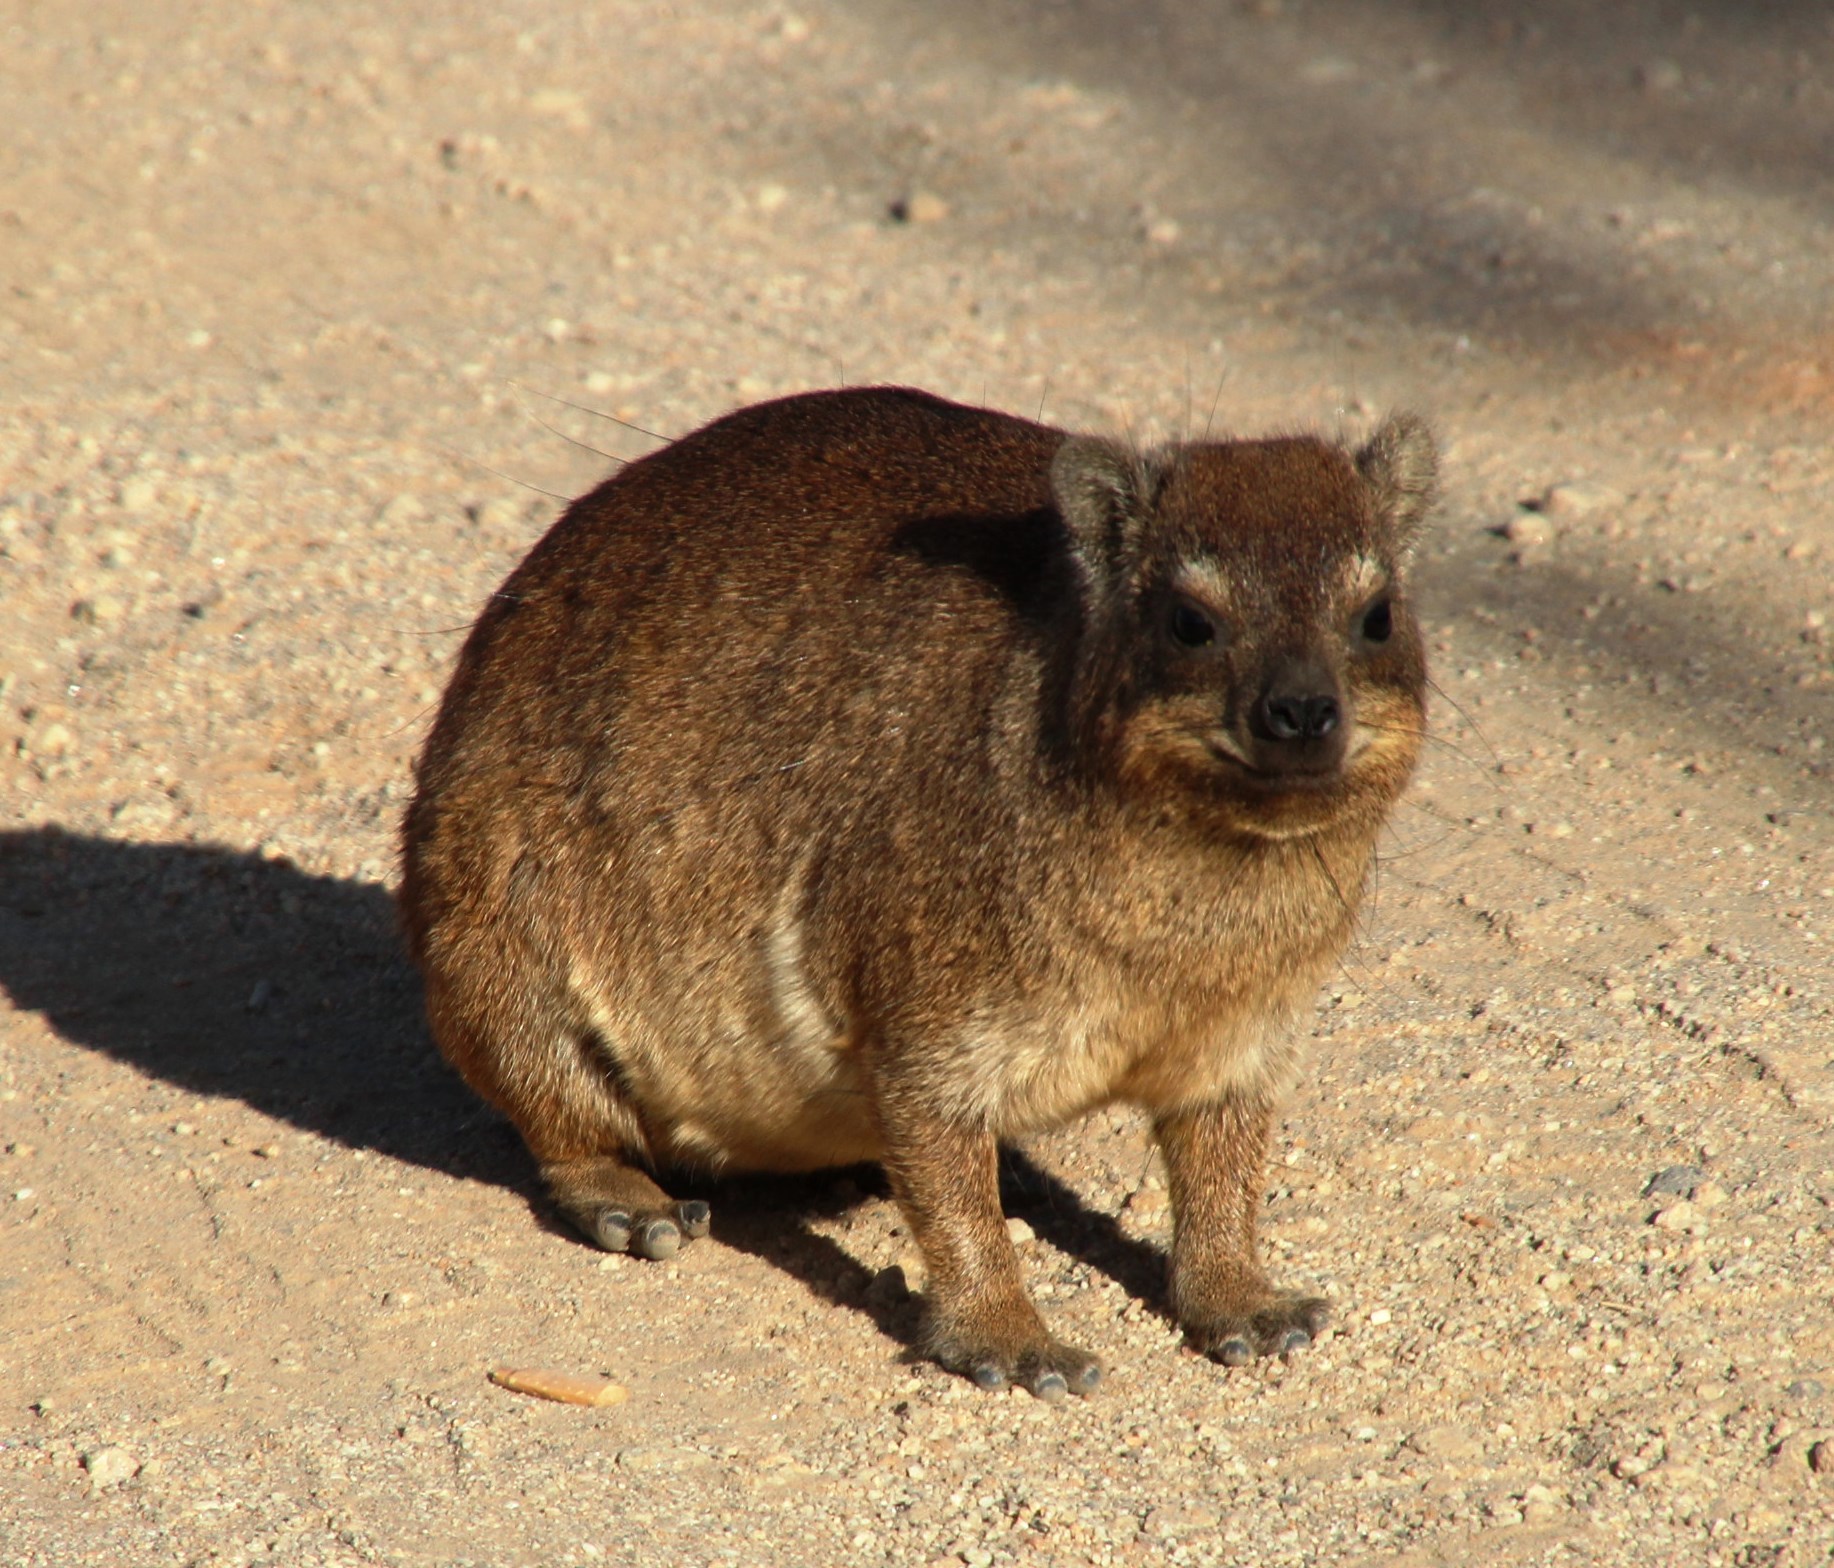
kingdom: Animalia
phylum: Chordata
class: Mammalia
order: Hyracoidea
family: Procaviidae
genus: Procavia
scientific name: Procavia capensis
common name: Rock hyrax
